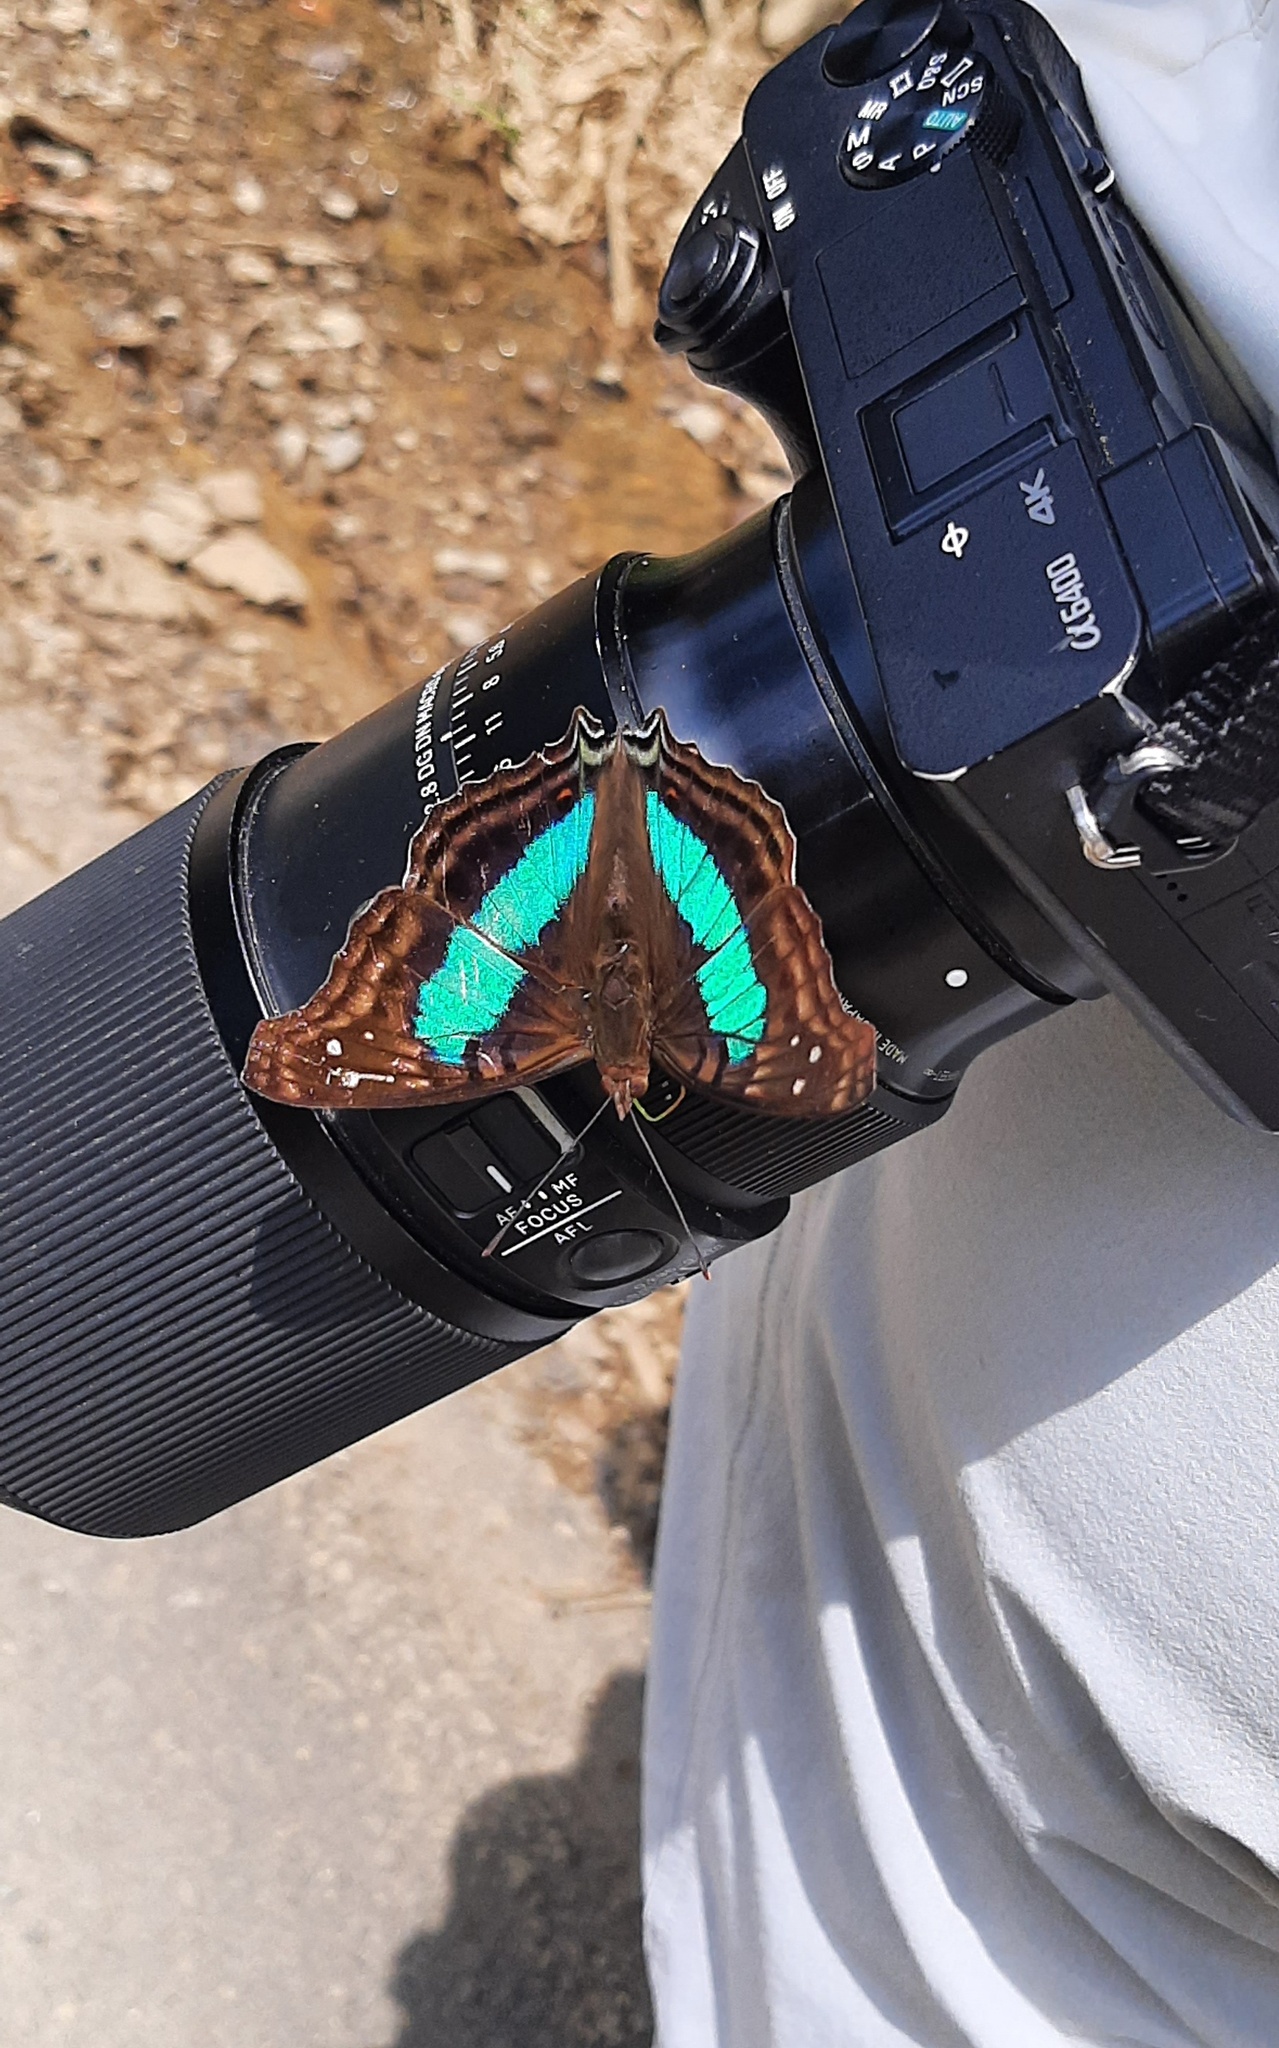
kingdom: Animalia
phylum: Arthropoda
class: Insecta
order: Lepidoptera
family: Nymphalidae
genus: Doxocopa
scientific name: Doxocopa laurentia
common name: Turquoise emperor
